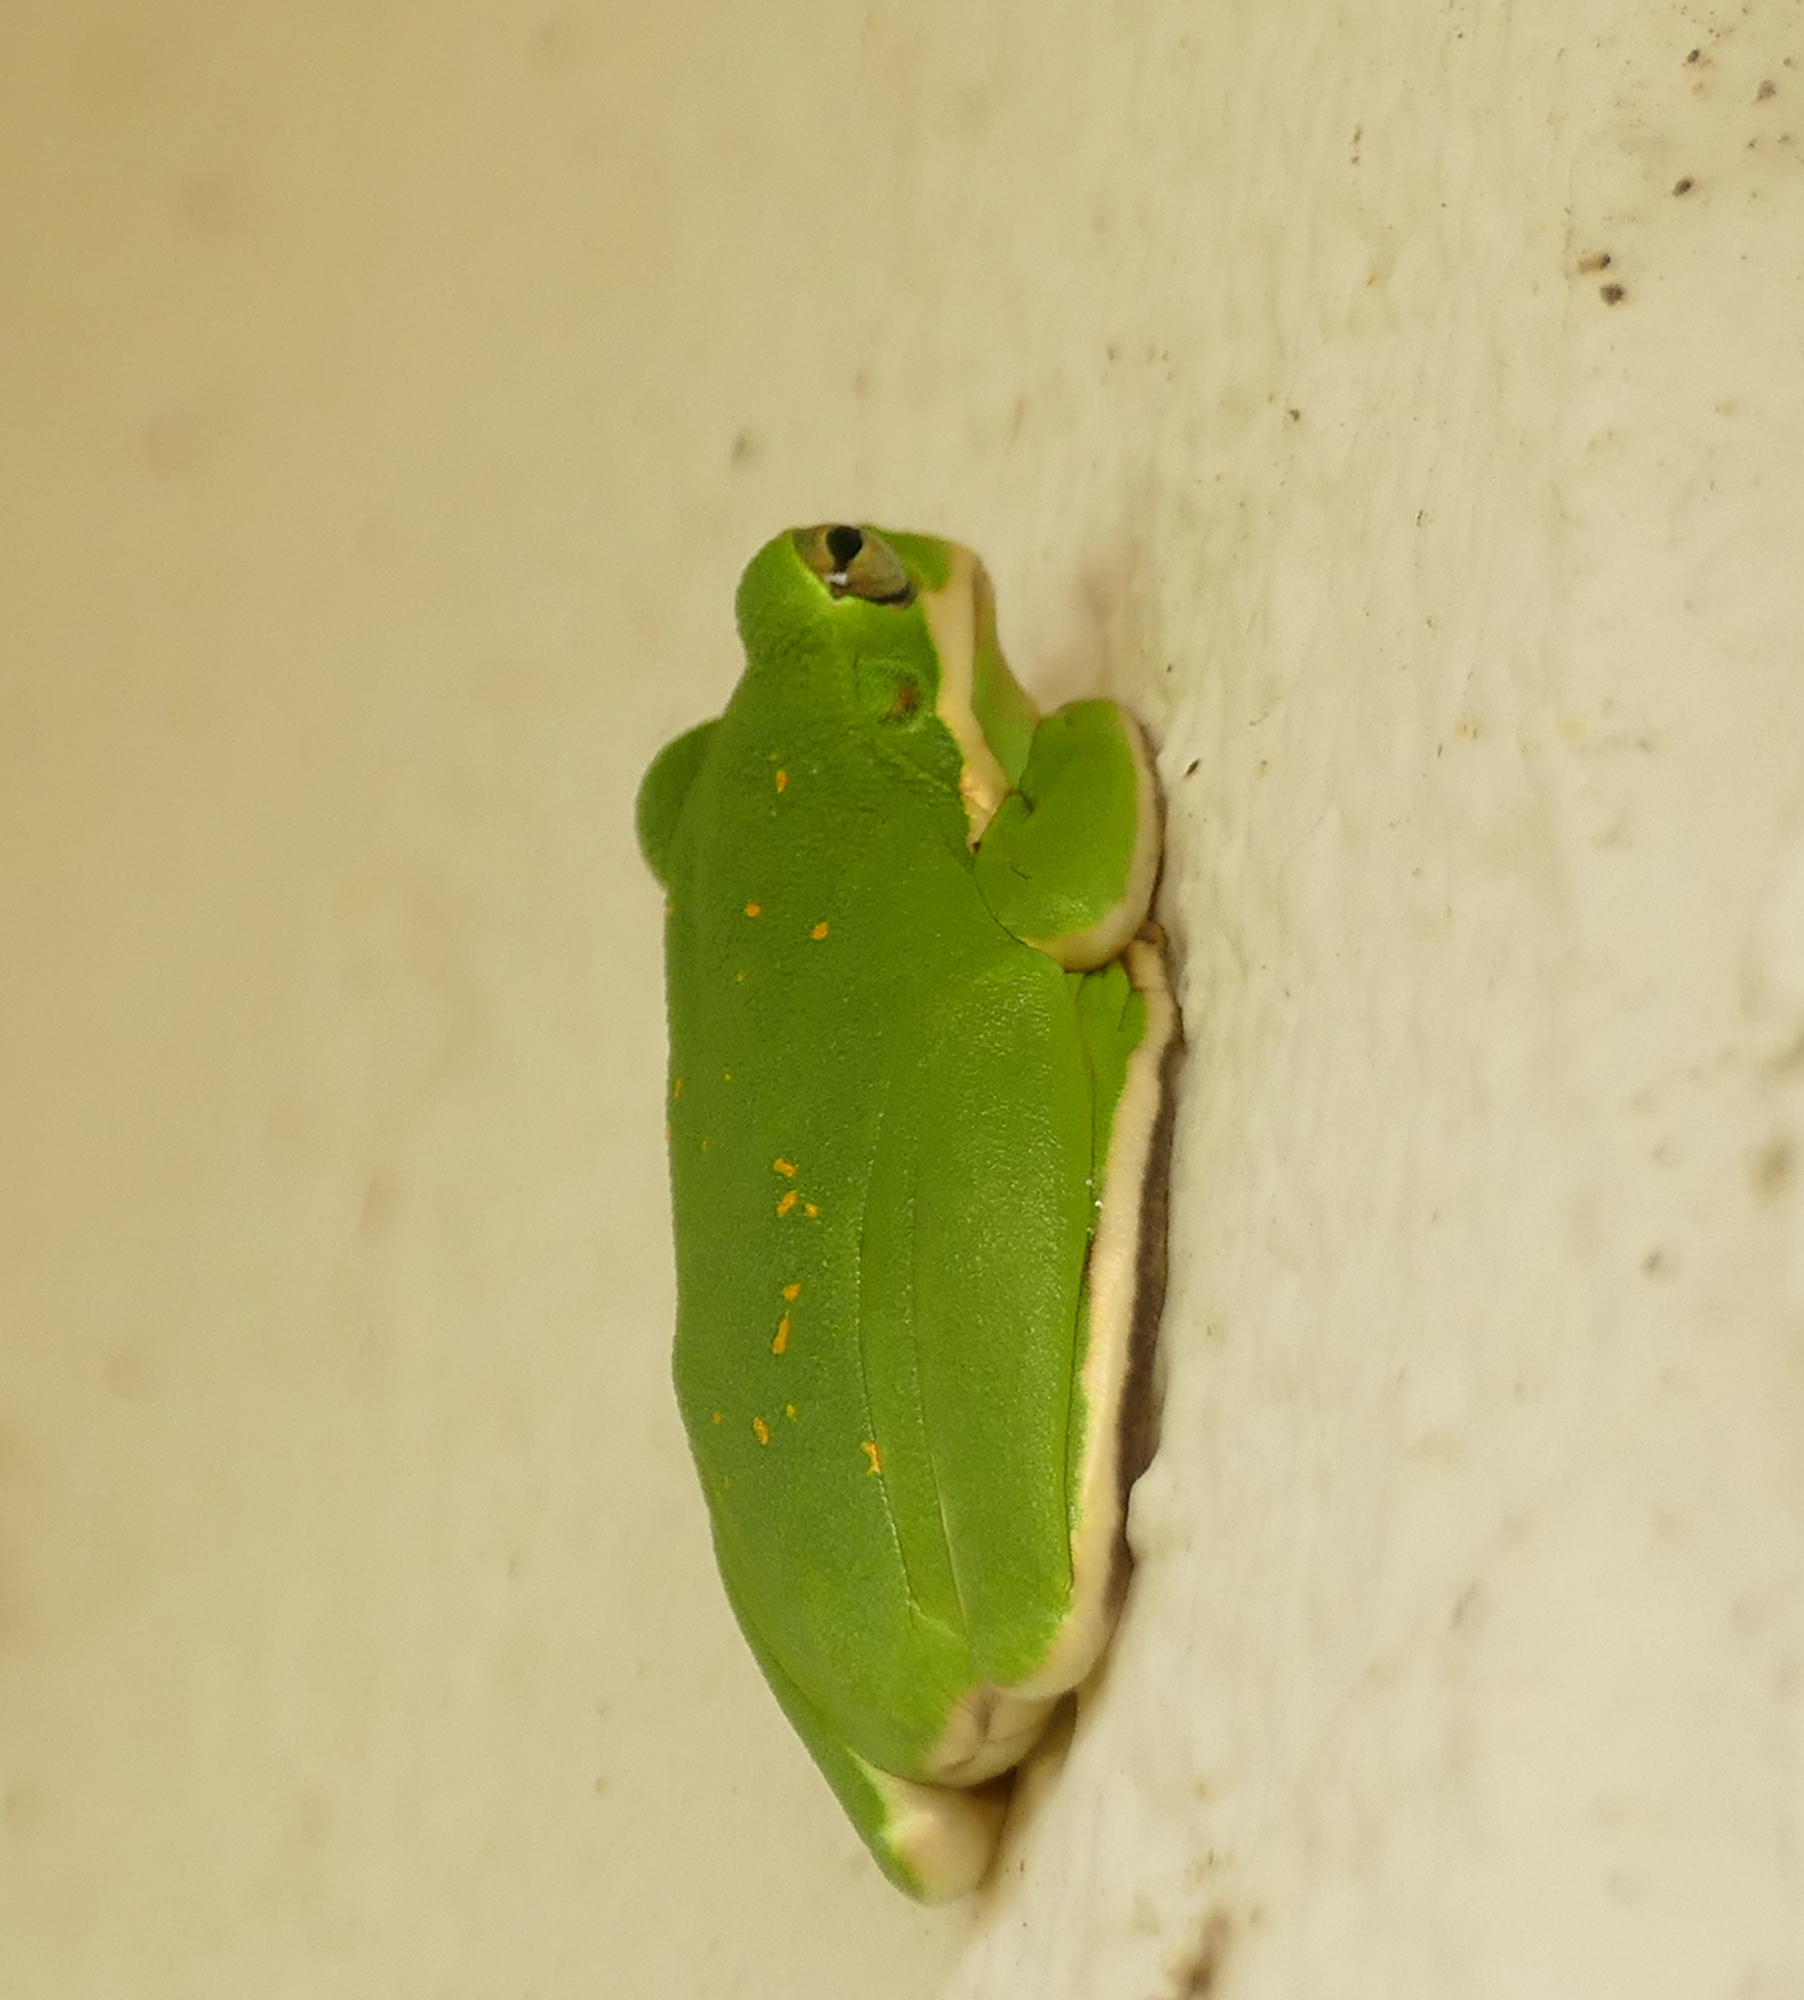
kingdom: Animalia
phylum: Chordata
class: Amphibia
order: Anura
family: Hylidae
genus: Dryophytes
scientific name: Dryophytes cinereus
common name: Green treefrog
